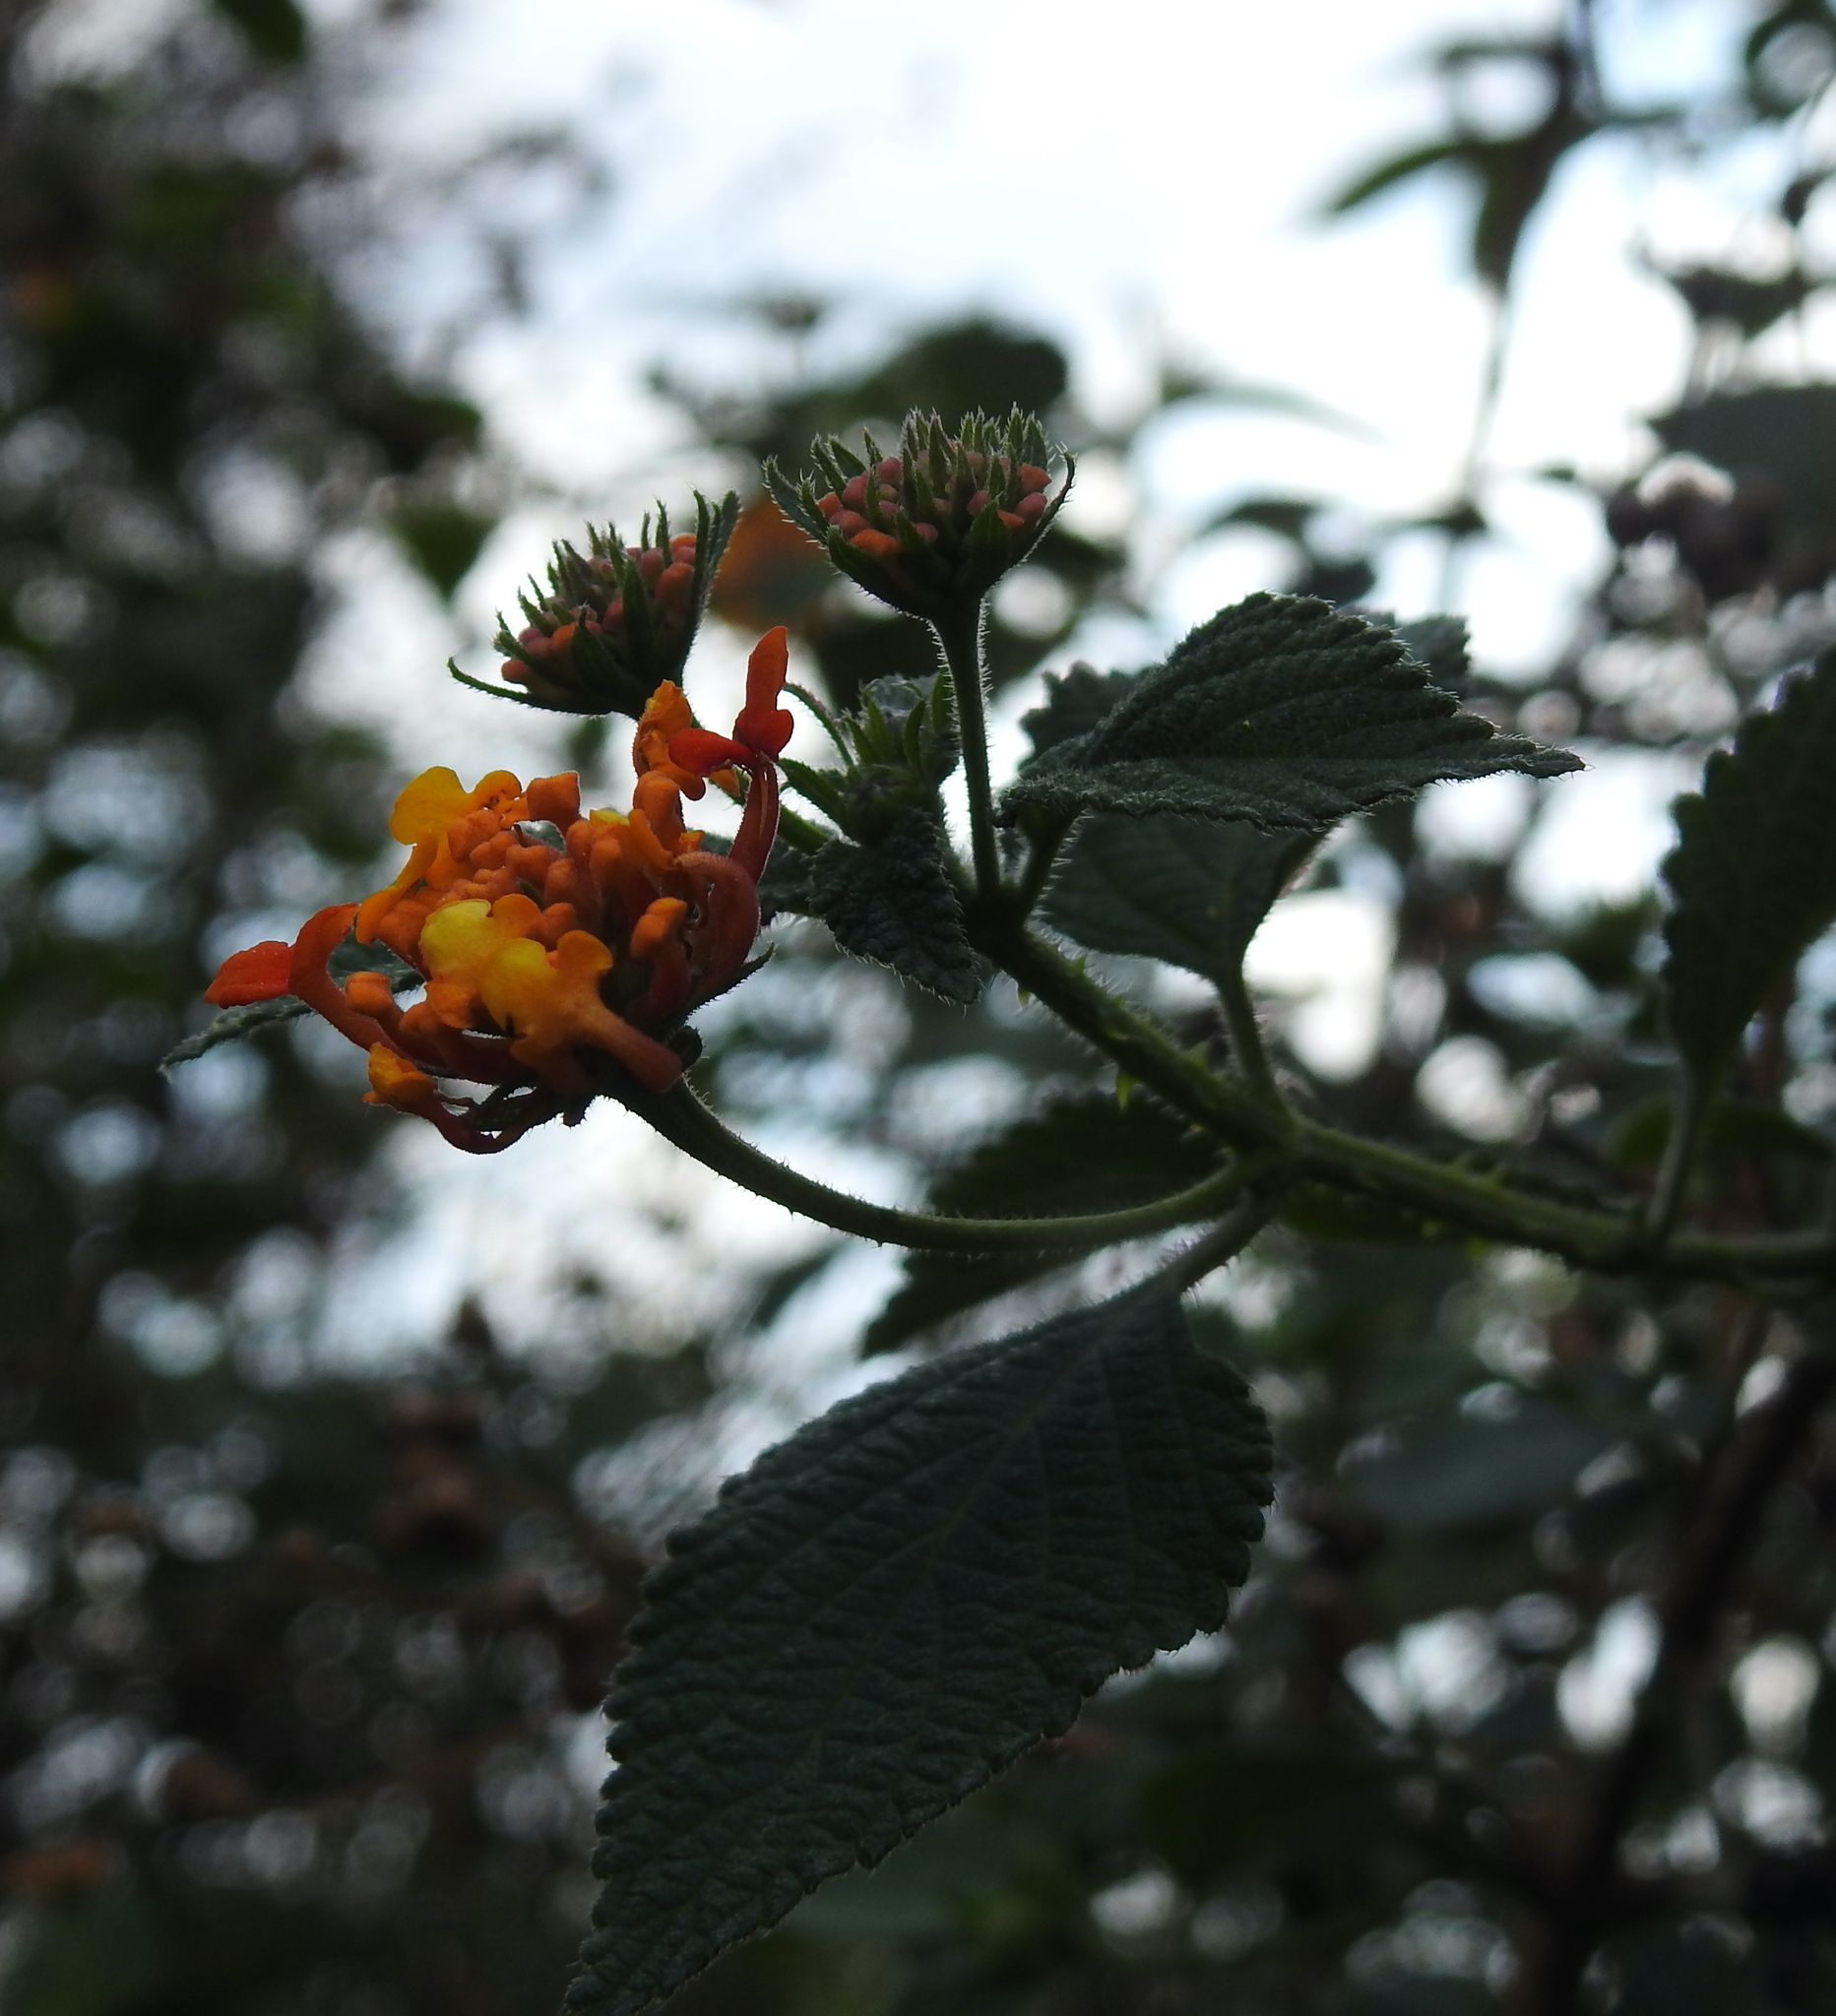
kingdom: Plantae
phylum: Tracheophyta
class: Magnoliopsida
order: Lamiales
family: Verbenaceae
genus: Lantana
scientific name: Lantana camara
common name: Lantana
